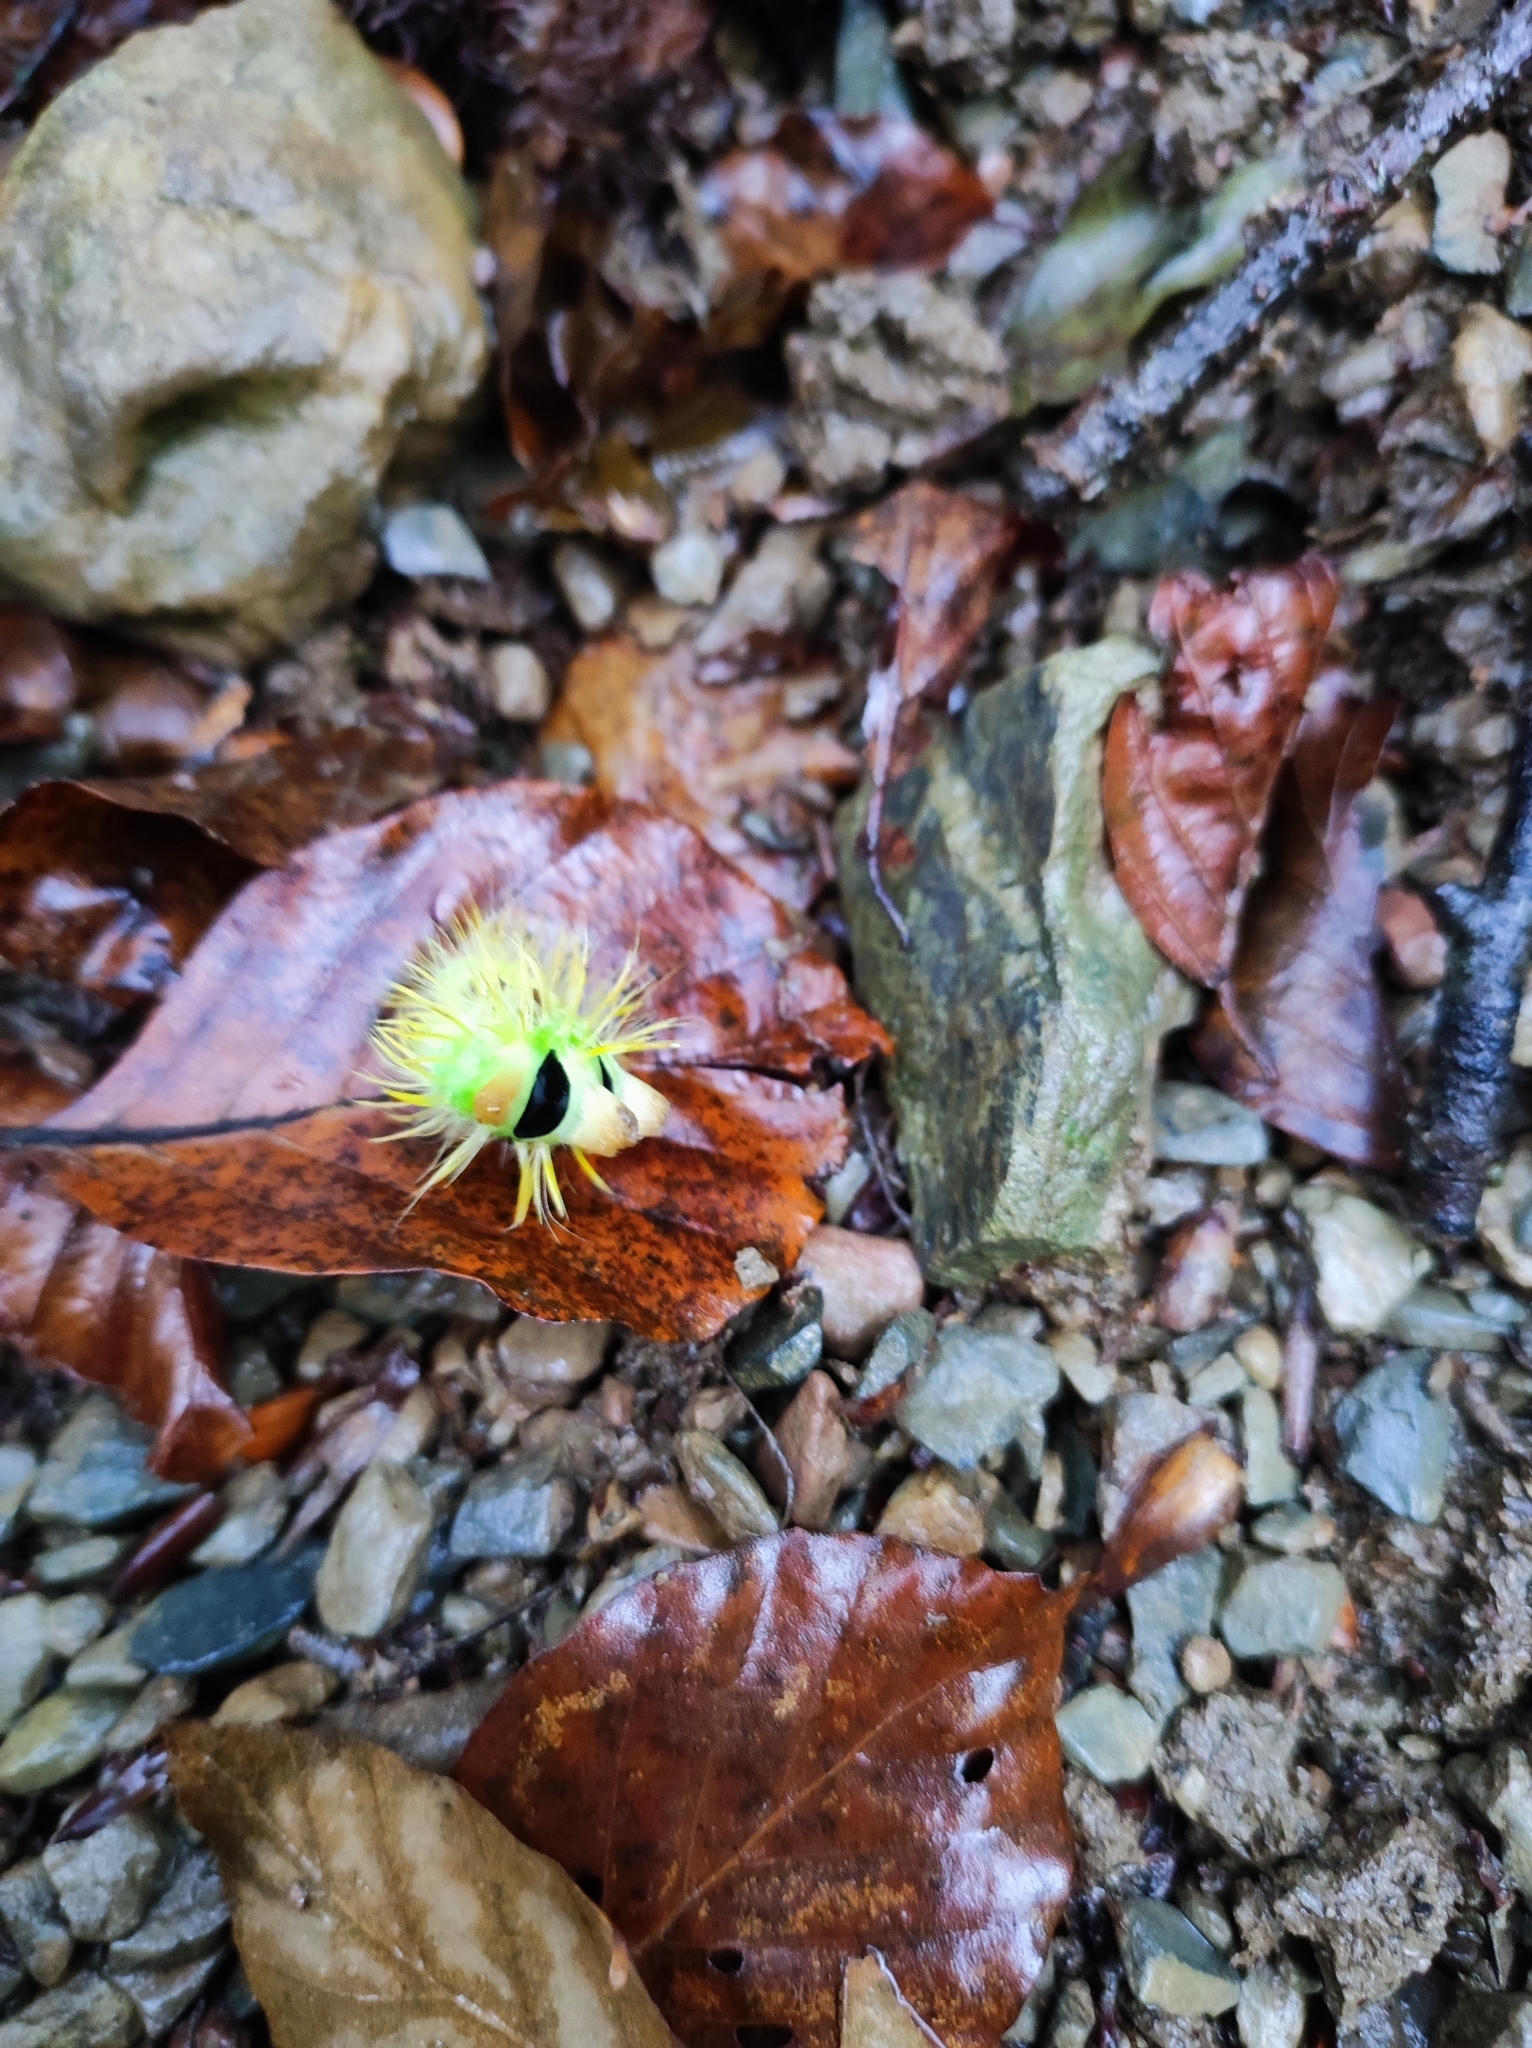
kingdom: Animalia
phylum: Arthropoda
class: Insecta
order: Lepidoptera
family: Erebidae
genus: Calliteara
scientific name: Calliteara pudibunda
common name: Pale tussock
